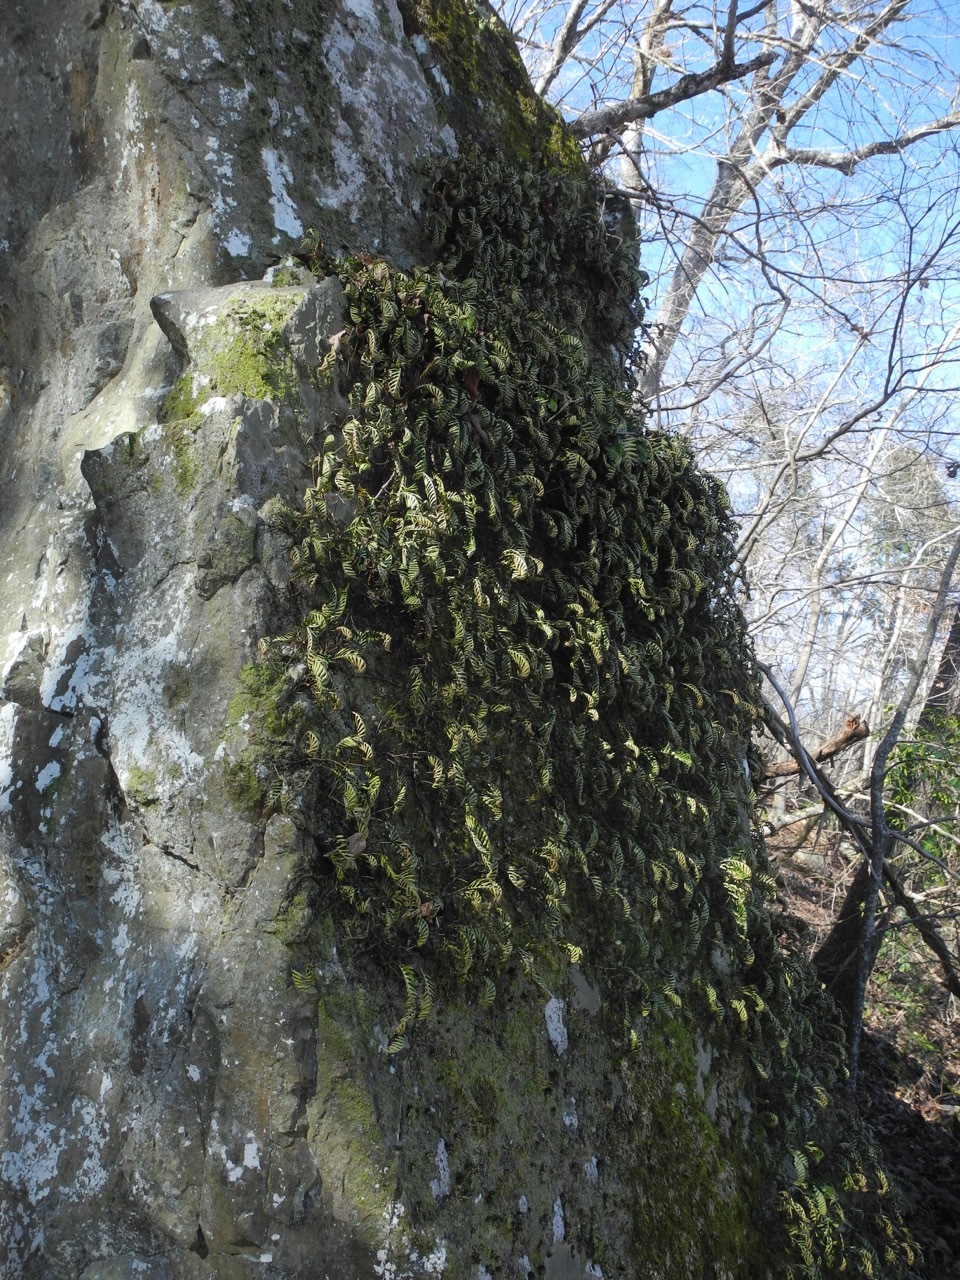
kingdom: Plantae
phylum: Tracheophyta
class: Polypodiopsida
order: Polypodiales
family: Polypodiaceae
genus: Pleopeltis
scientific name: Pleopeltis michauxiana
